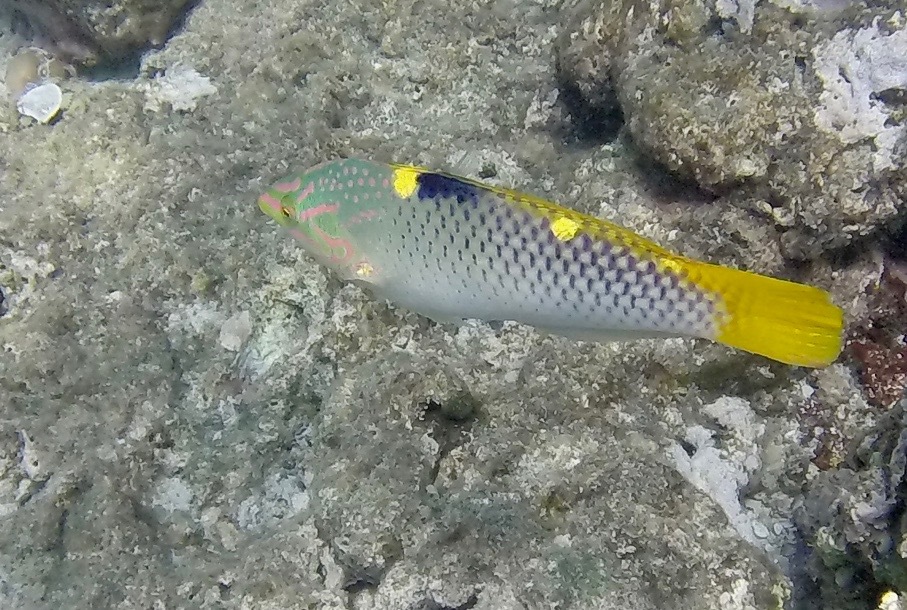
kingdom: Animalia
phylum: Chordata
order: Perciformes
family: Labridae
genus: Halichoeres
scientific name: Halichoeres hortulanus
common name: Checkerboard wrasse
